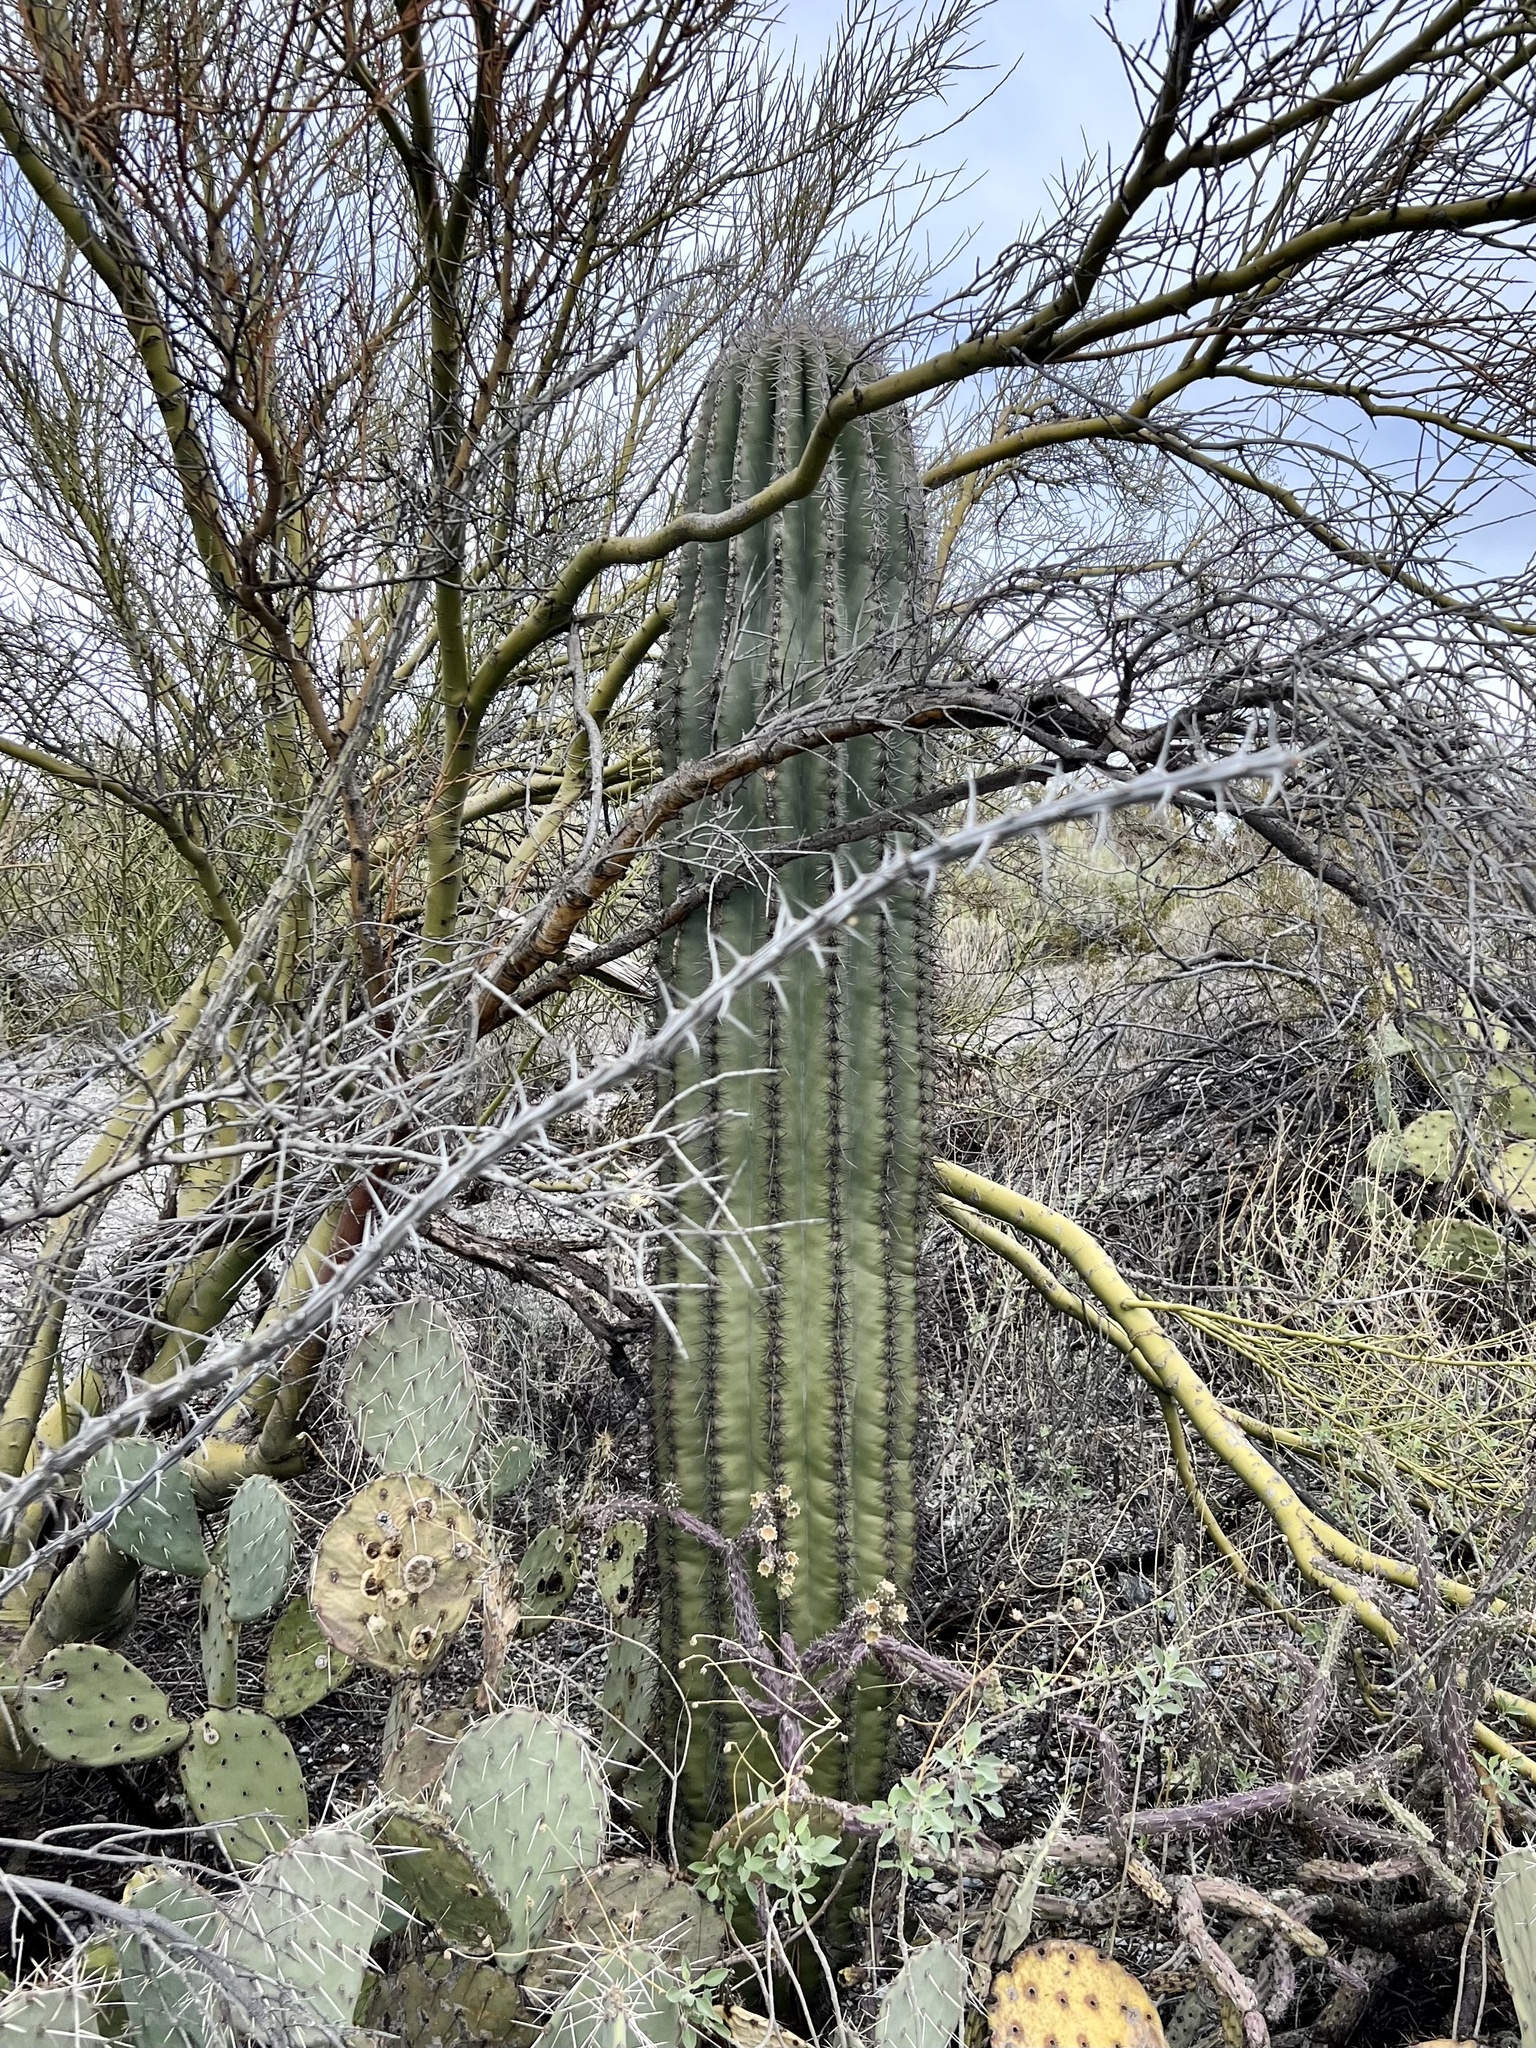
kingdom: Plantae
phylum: Tracheophyta
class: Magnoliopsida
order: Caryophyllales
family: Cactaceae
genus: Carnegiea
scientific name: Carnegiea gigantea
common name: Saguaro
